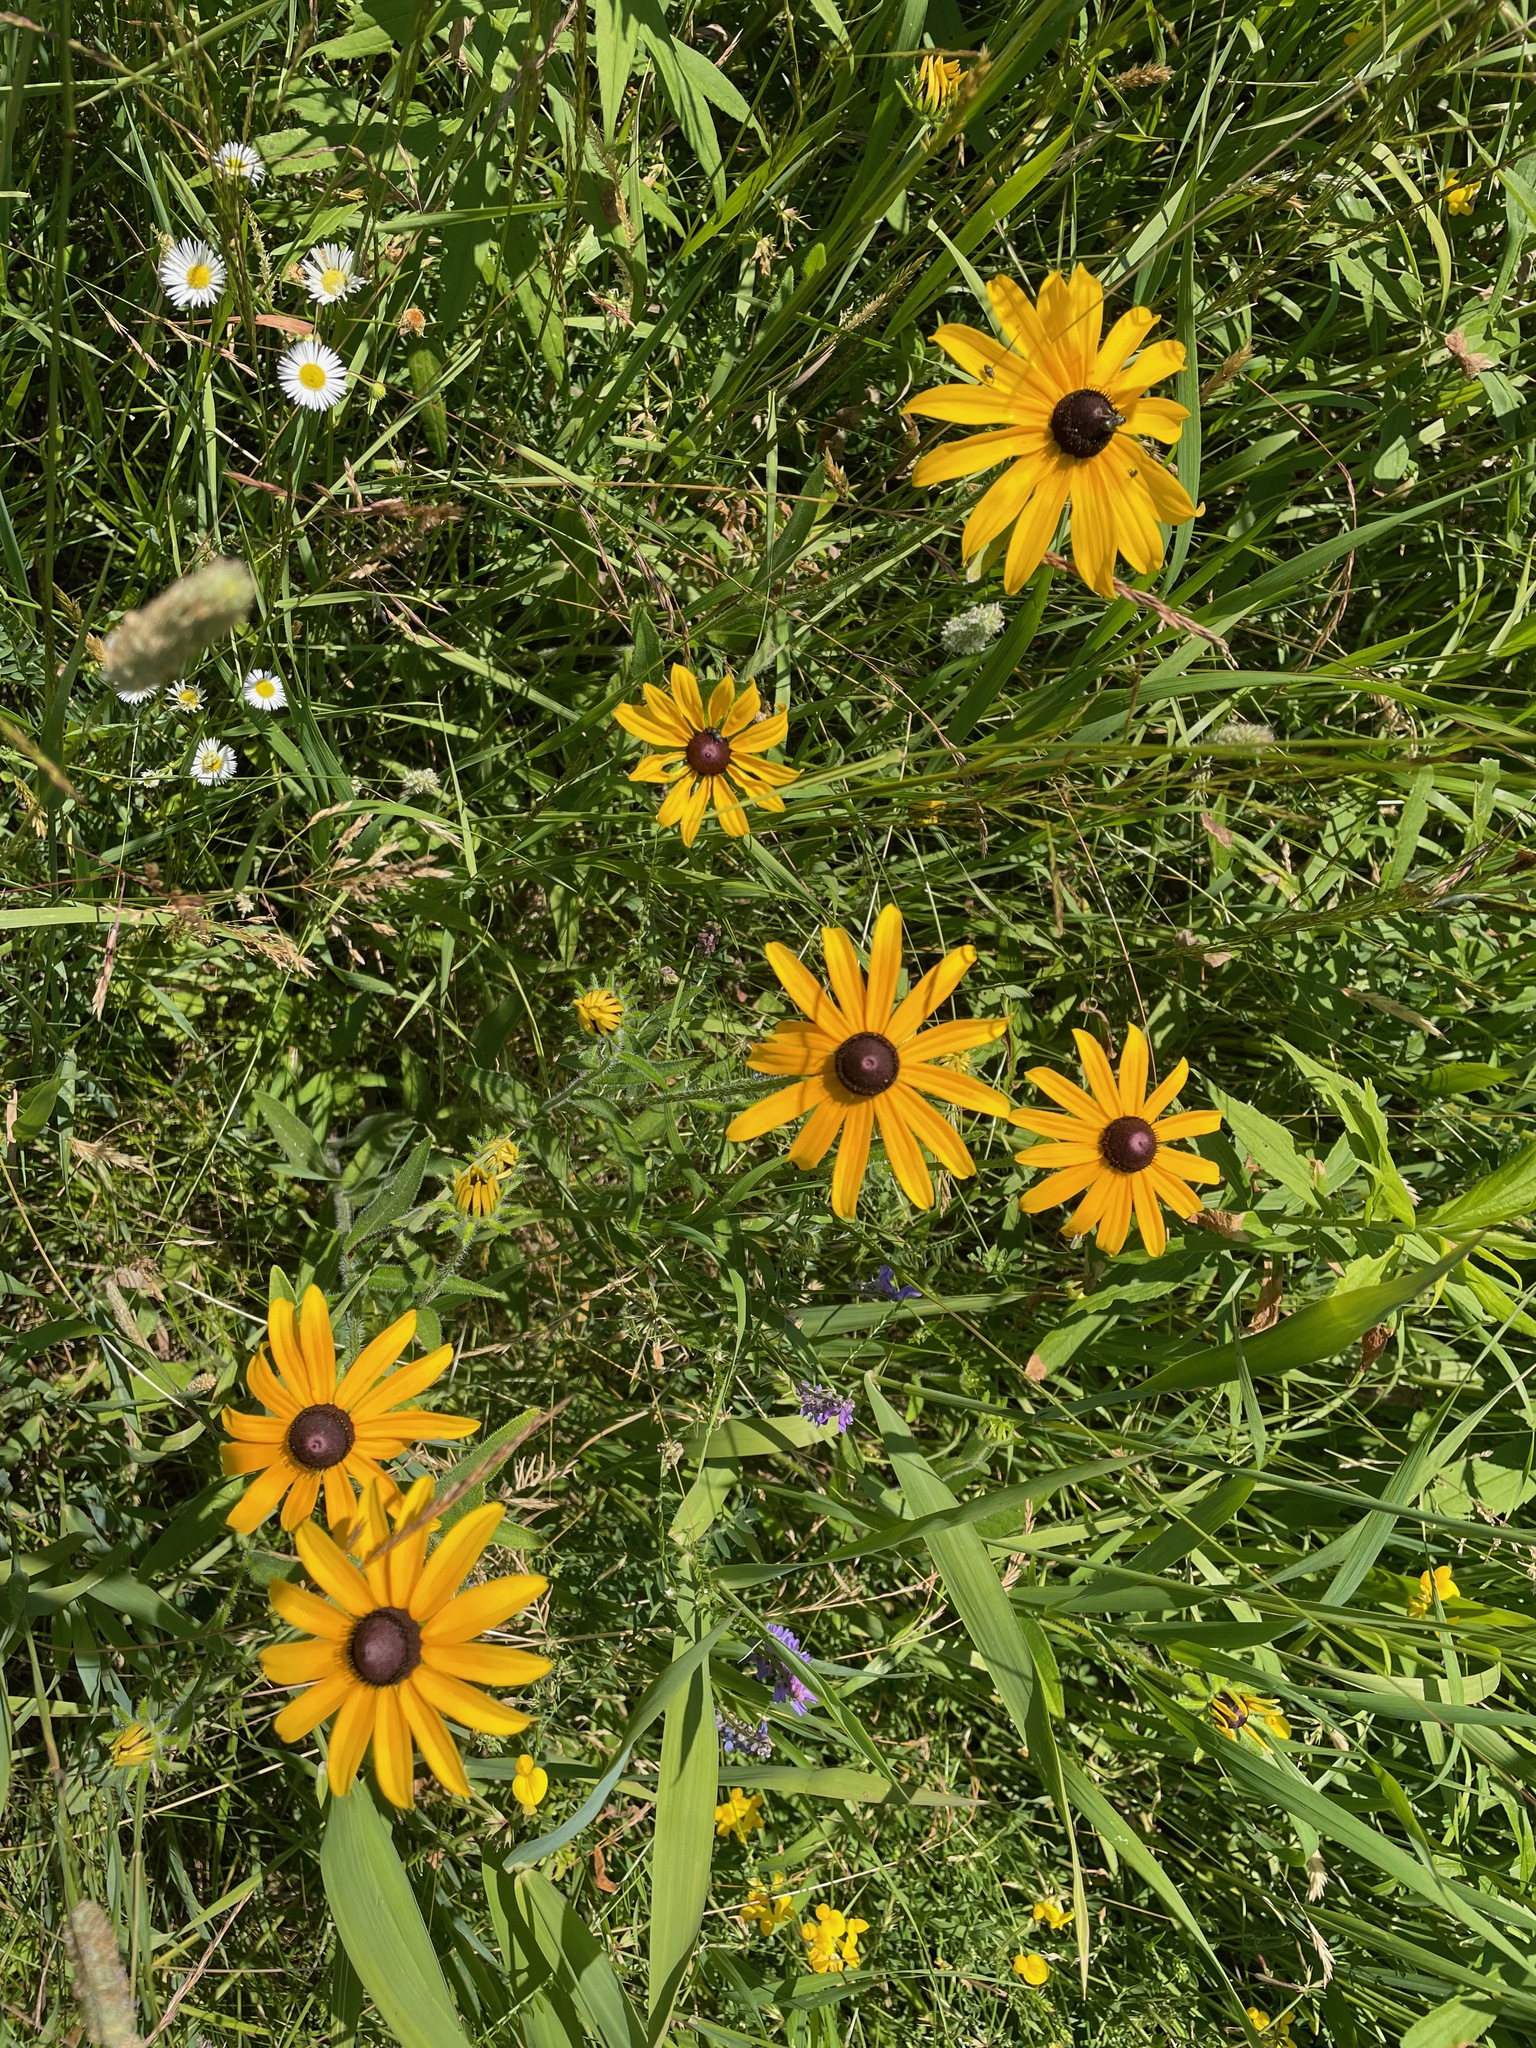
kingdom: Plantae
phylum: Tracheophyta
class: Magnoliopsida
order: Asterales
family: Asteraceae
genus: Rudbeckia
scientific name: Rudbeckia hirta
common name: Black-eyed-susan
